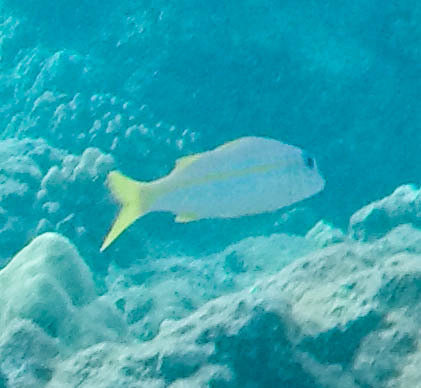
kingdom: Animalia
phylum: Chordata
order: Perciformes
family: Mullidae
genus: Mulloidichthys
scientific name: Mulloidichthys vanicolensis
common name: Yellowfin goatfish
